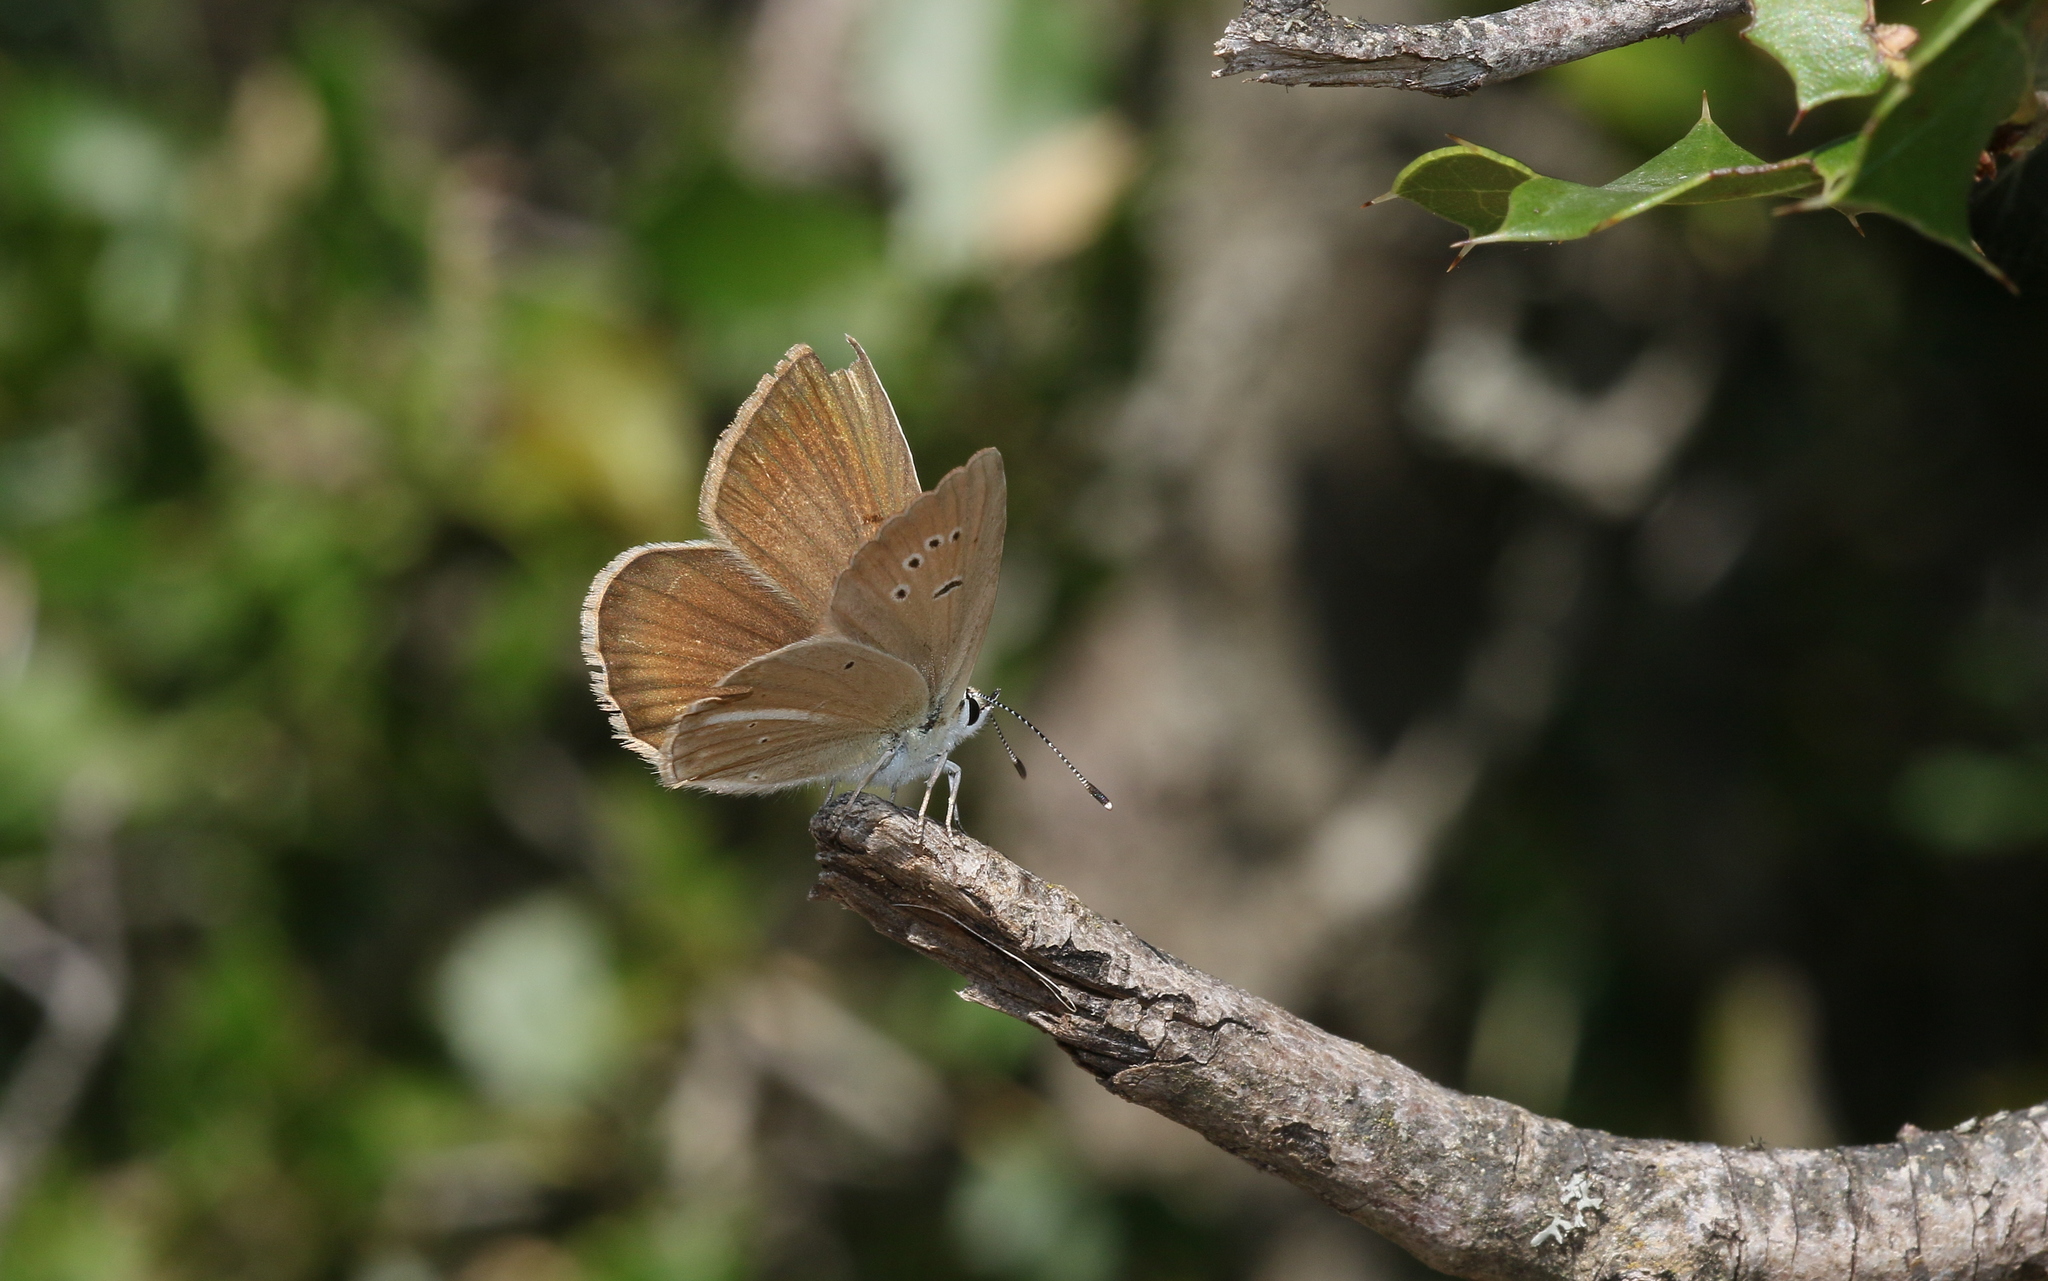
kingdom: Animalia
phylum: Arthropoda
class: Insecta
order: Lepidoptera
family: Lycaenidae
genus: Polyommatus
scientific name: Polyommatus ripartii
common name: Ripart's anomalous blue
